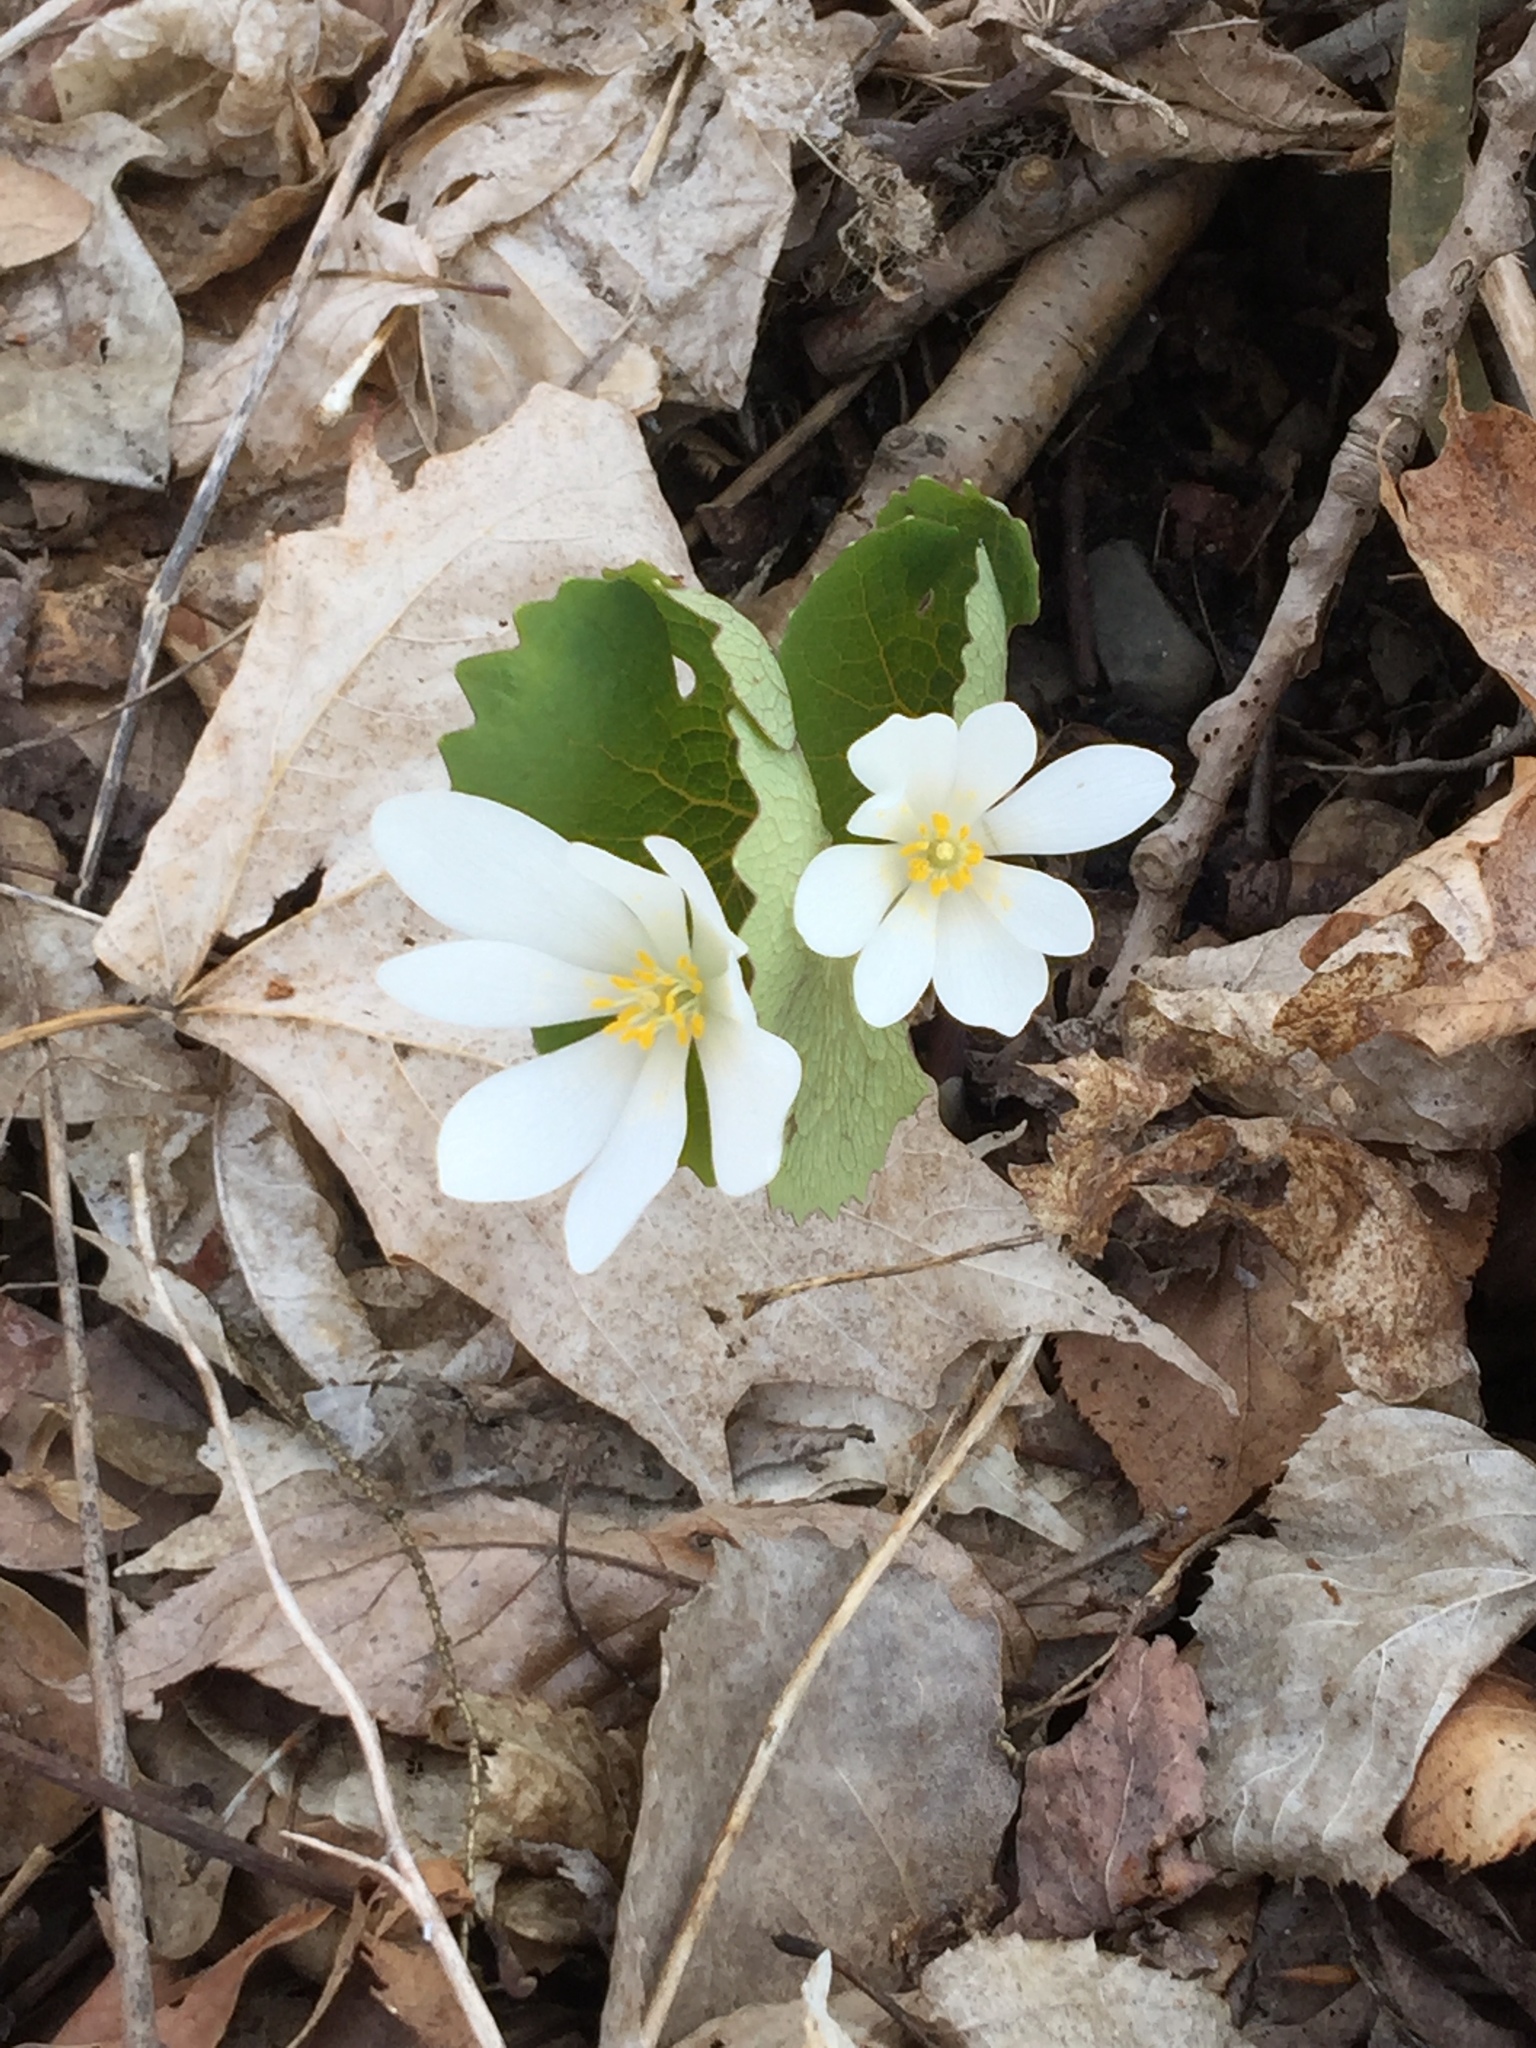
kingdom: Plantae
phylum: Tracheophyta
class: Magnoliopsida
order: Ranunculales
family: Papaveraceae
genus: Sanguinaria
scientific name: Sanguinaria canadensis
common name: Bloodroot
